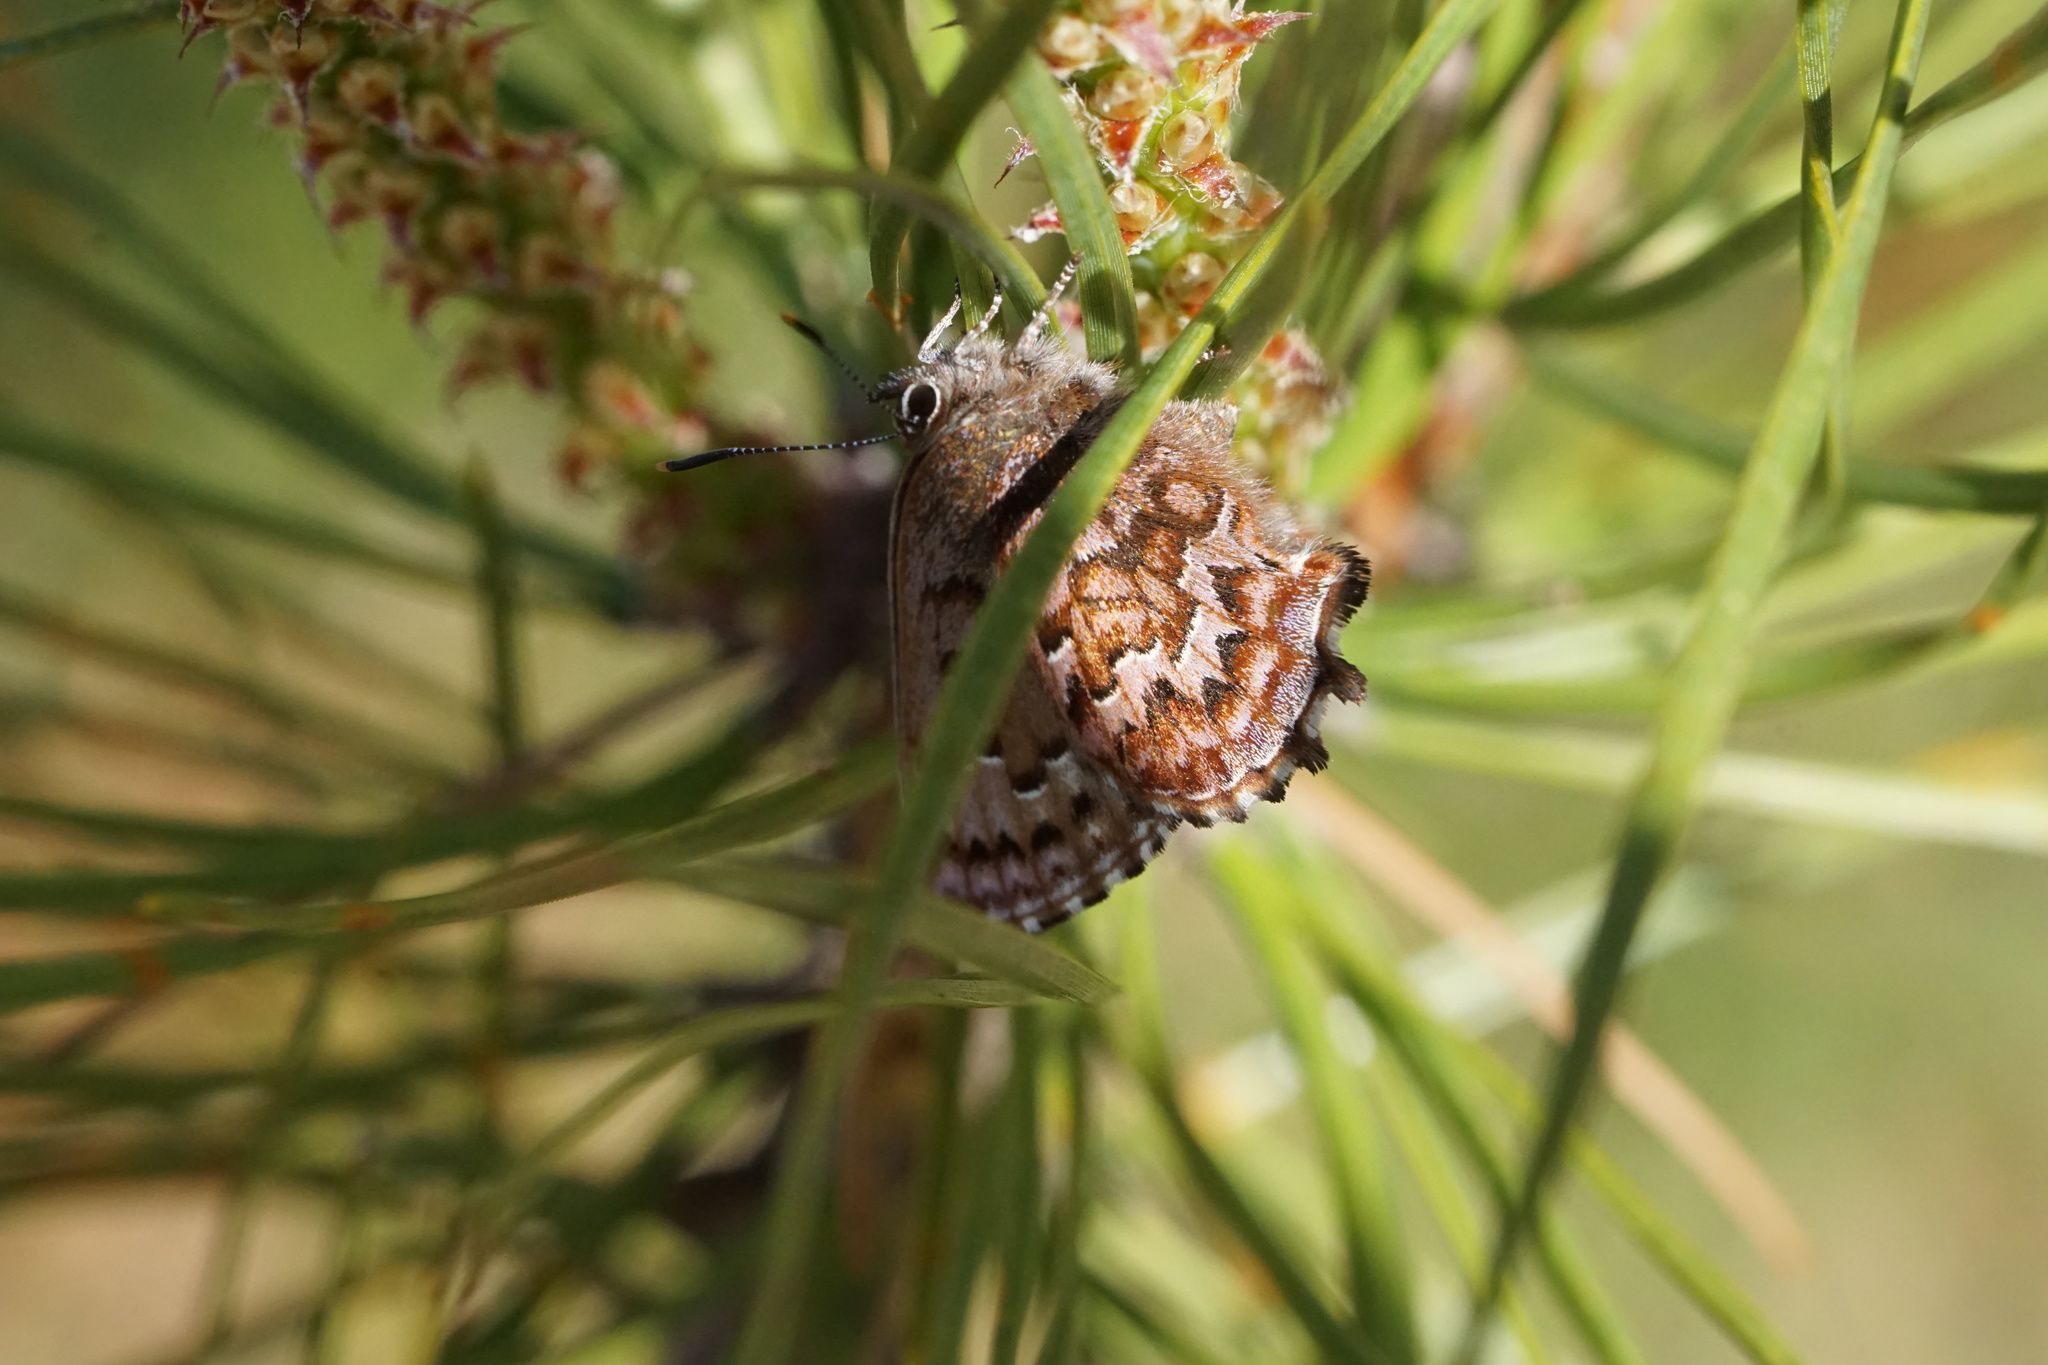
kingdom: Animalia
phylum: Arthropoda
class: Insecta
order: Lepidoptera
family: Lycaenidae
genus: Incisalia
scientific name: Incisalia niphon
